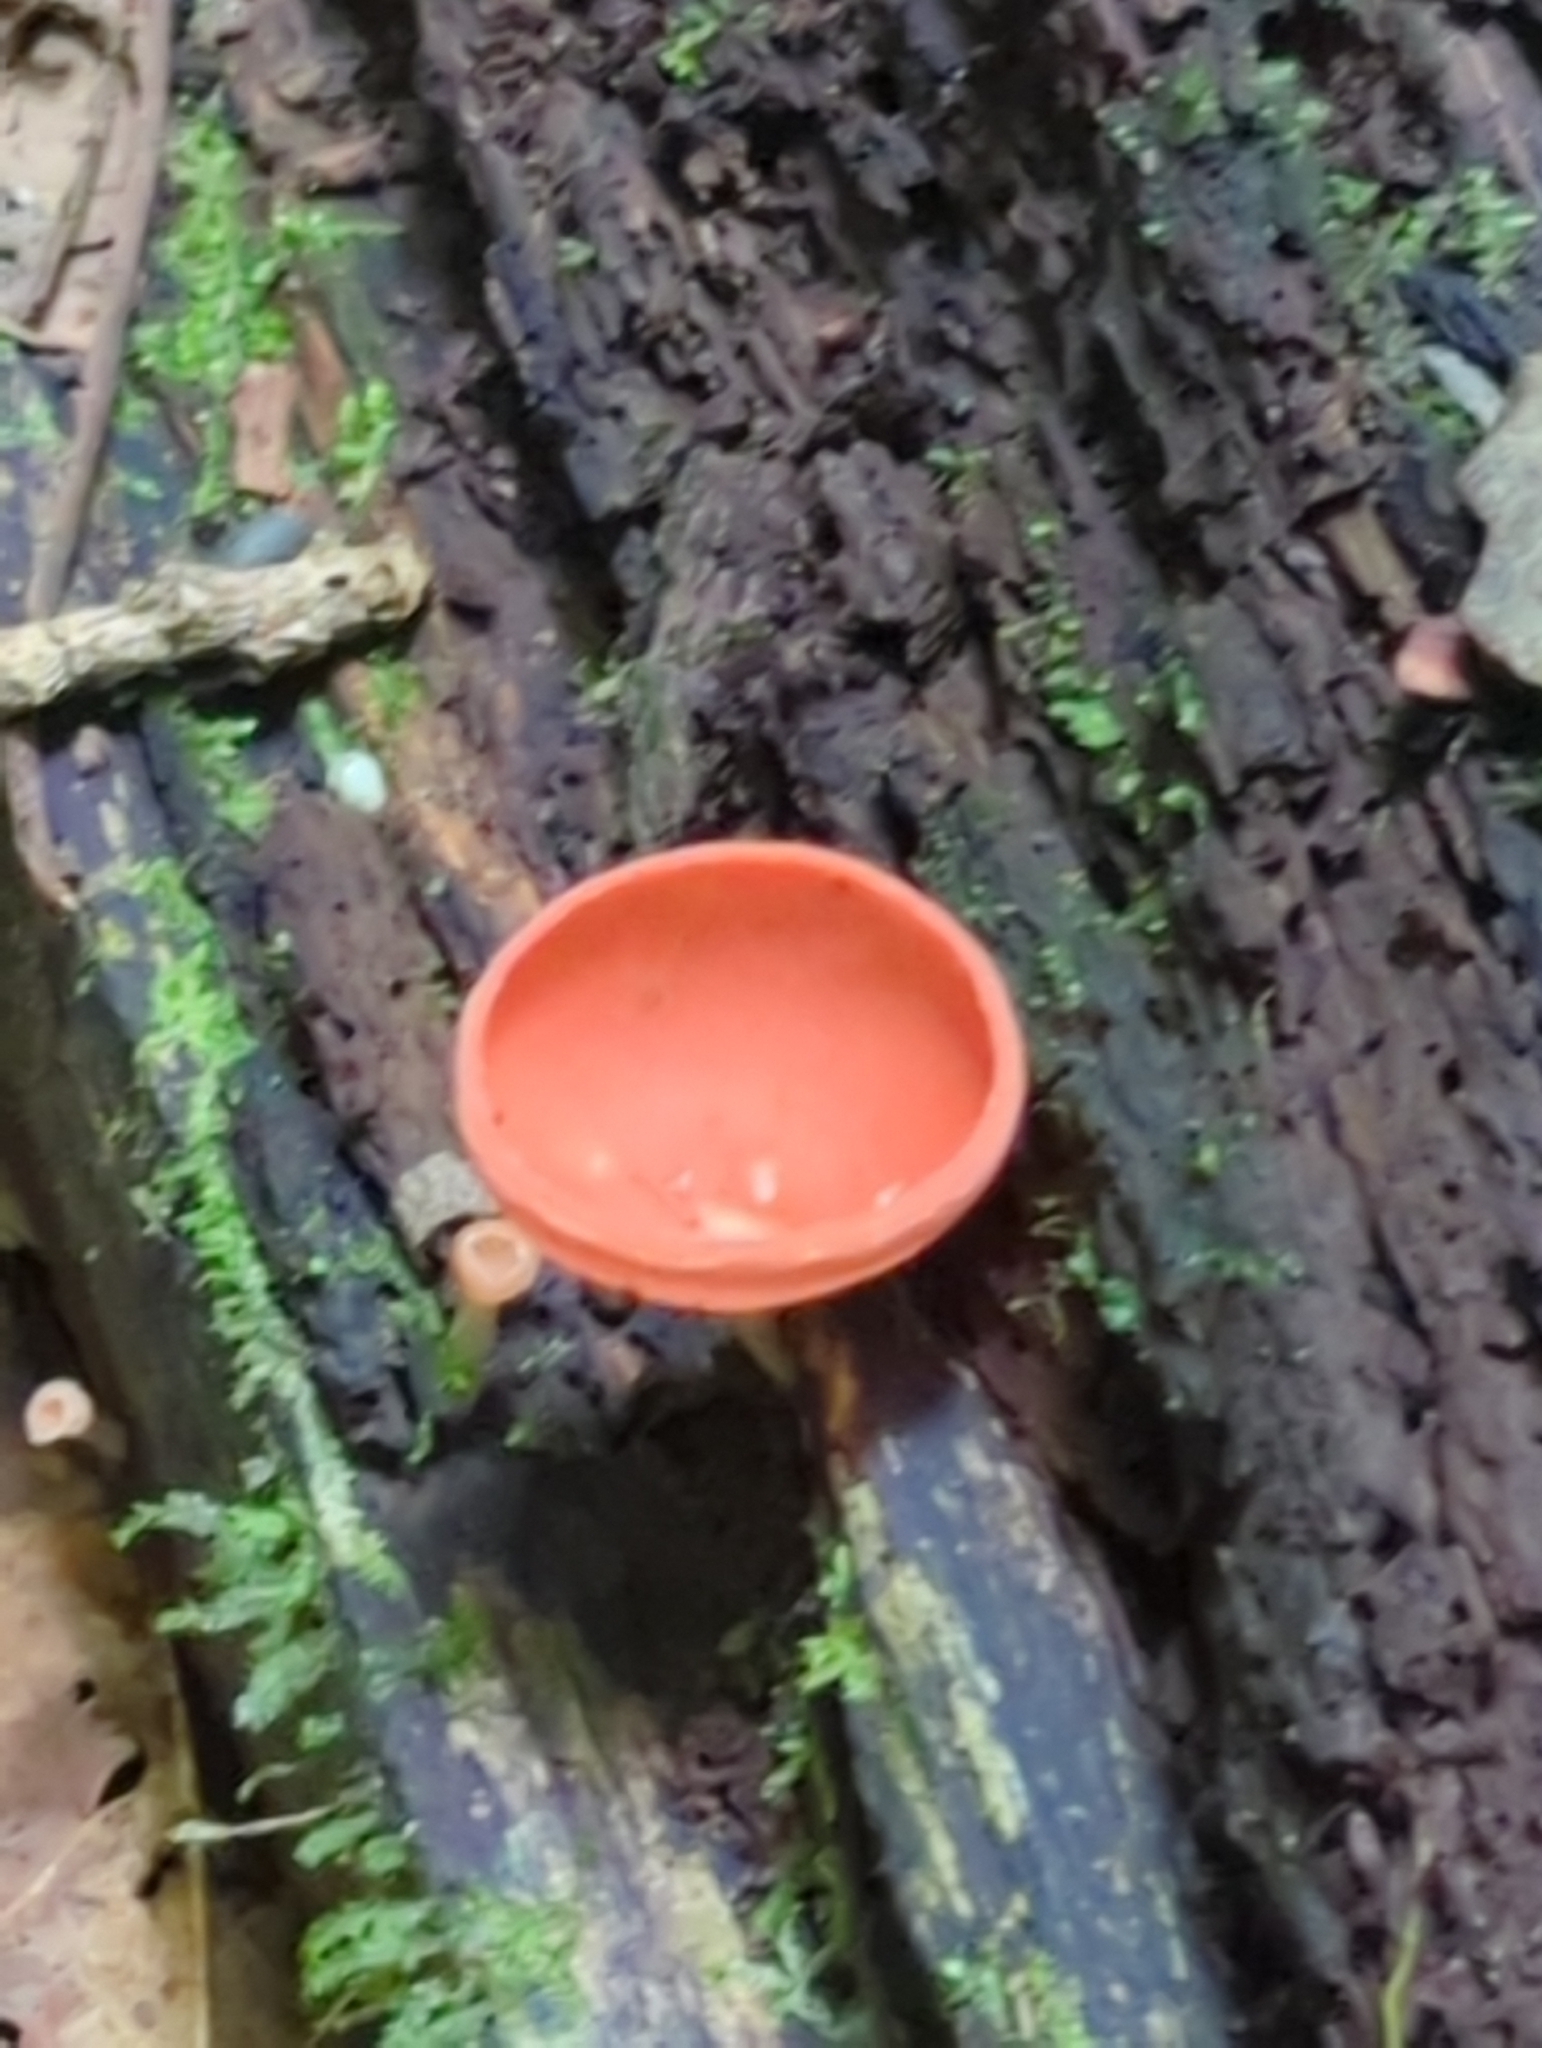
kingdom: Fungi
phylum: Ascomycota
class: Pezizomycetes
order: Pezizales
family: Sarcoscyphaceae
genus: Cookeina
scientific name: Cookeina speciosa
